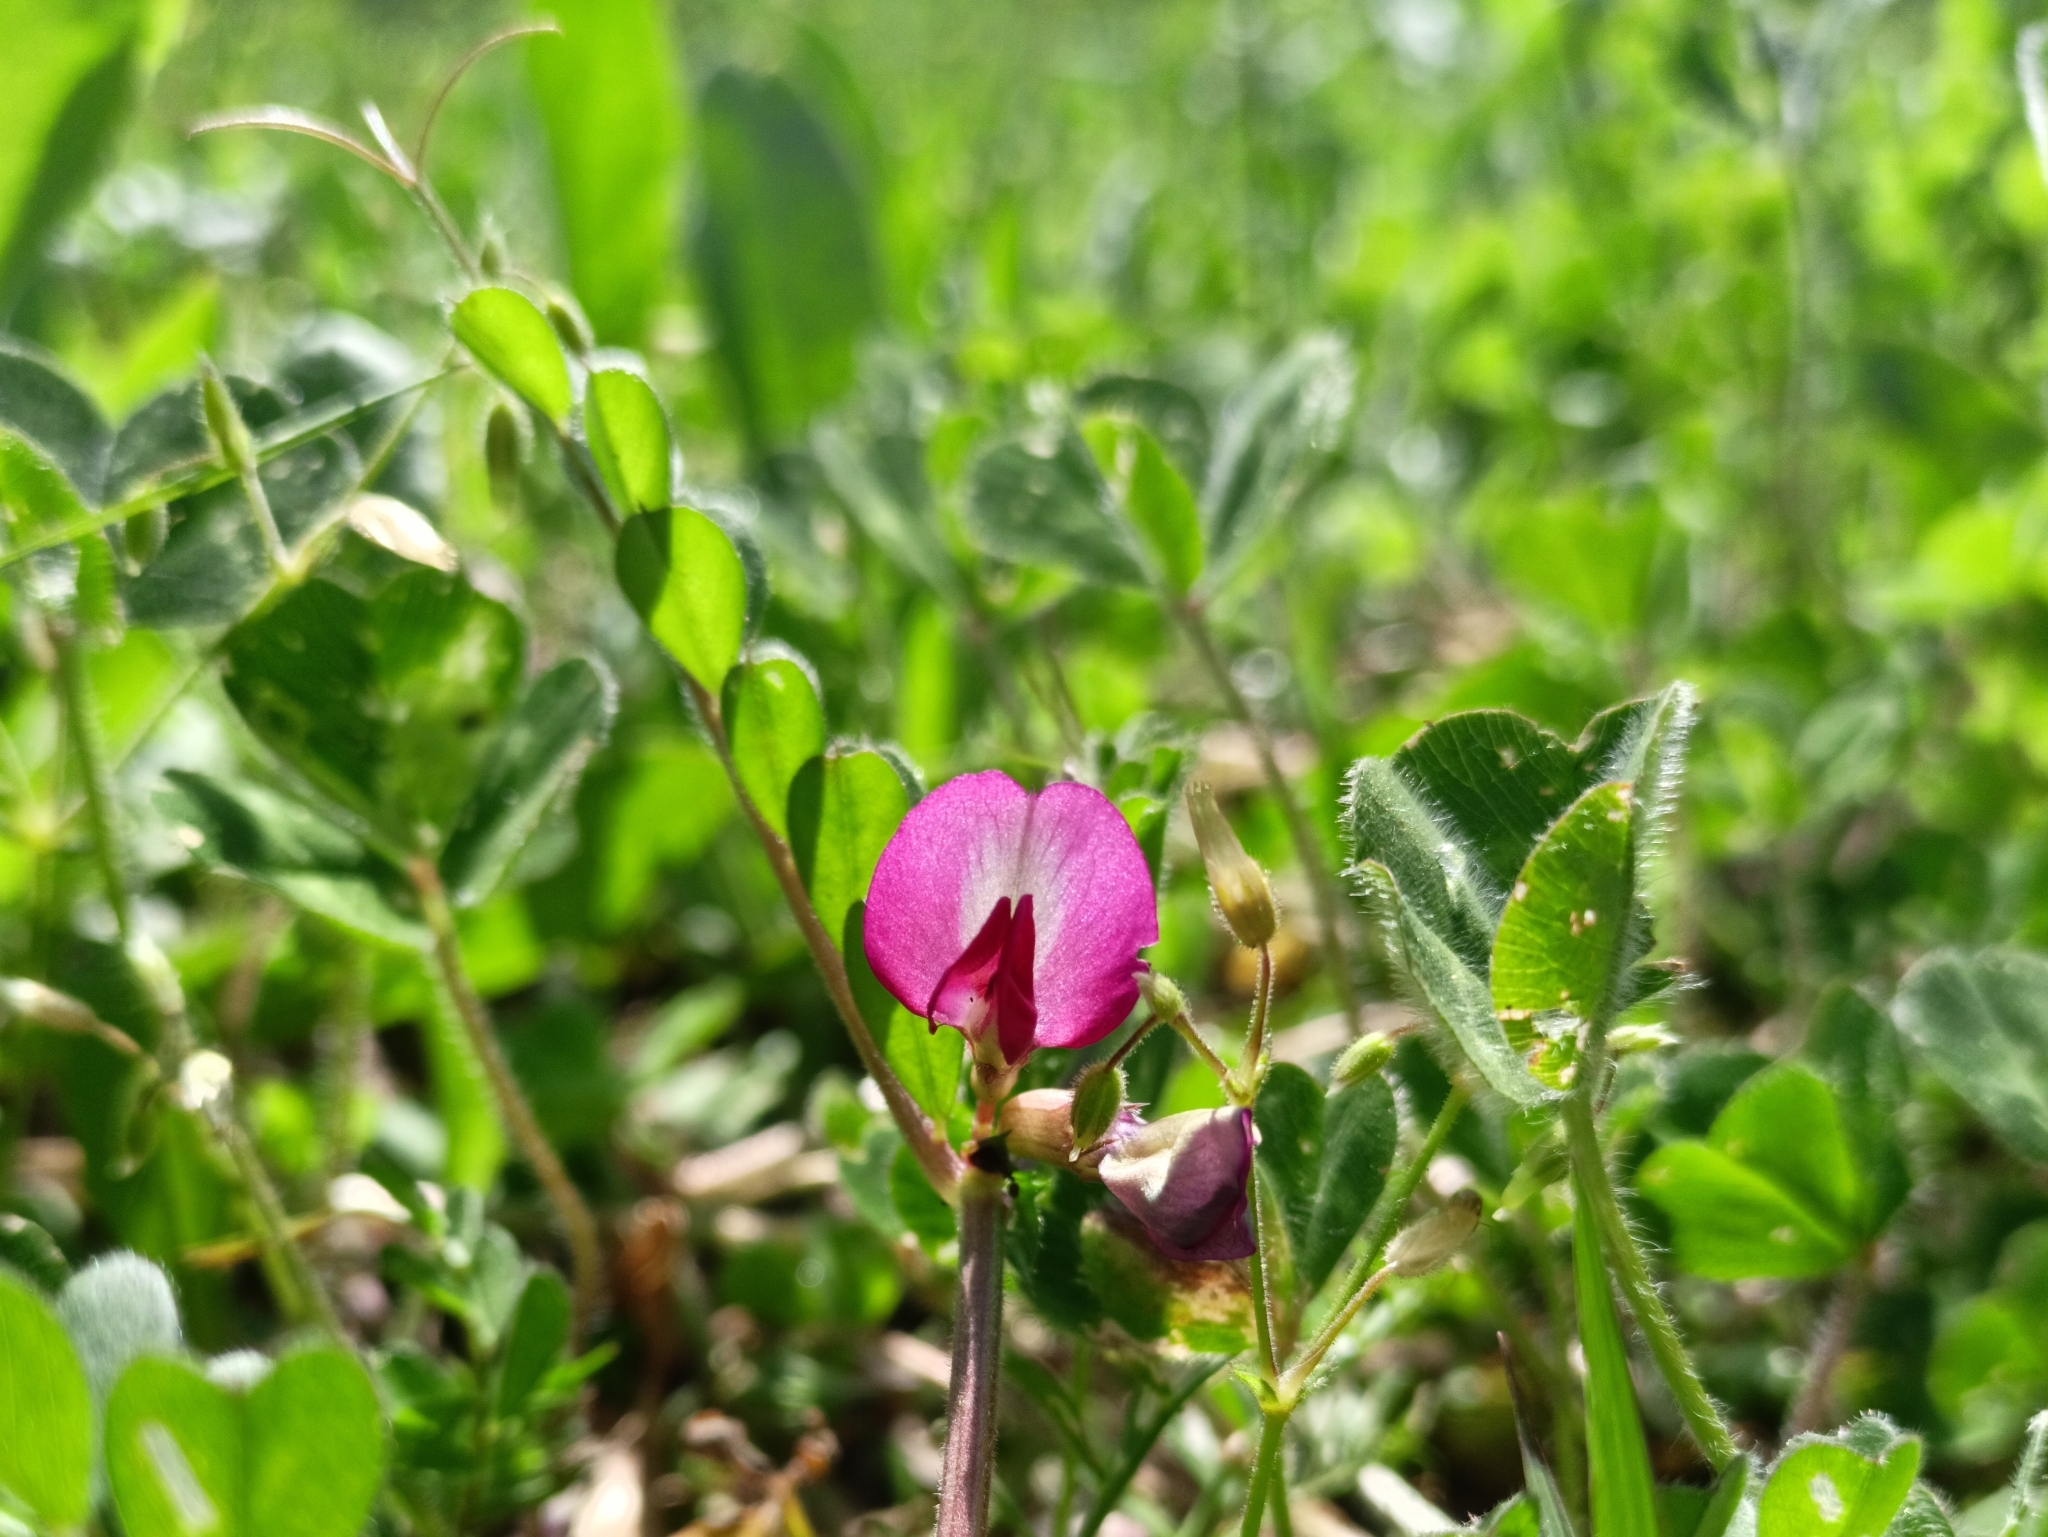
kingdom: Plantae
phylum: Tracheophyta
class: Magnoliopsida
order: Fabales
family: Fabaceae
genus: Vicia
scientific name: Vicia sativa
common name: Garden vetch
